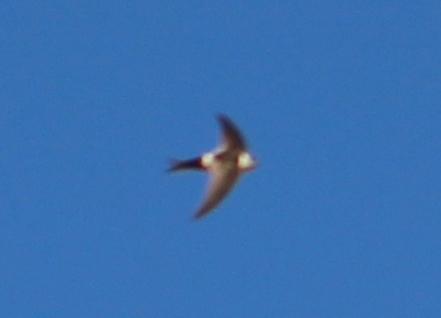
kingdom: Animalia
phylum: Chordata
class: Aves
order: Apodiformes
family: Apodidae
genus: Aeronautes
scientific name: Aeronautes andecolus
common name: Andean swift
